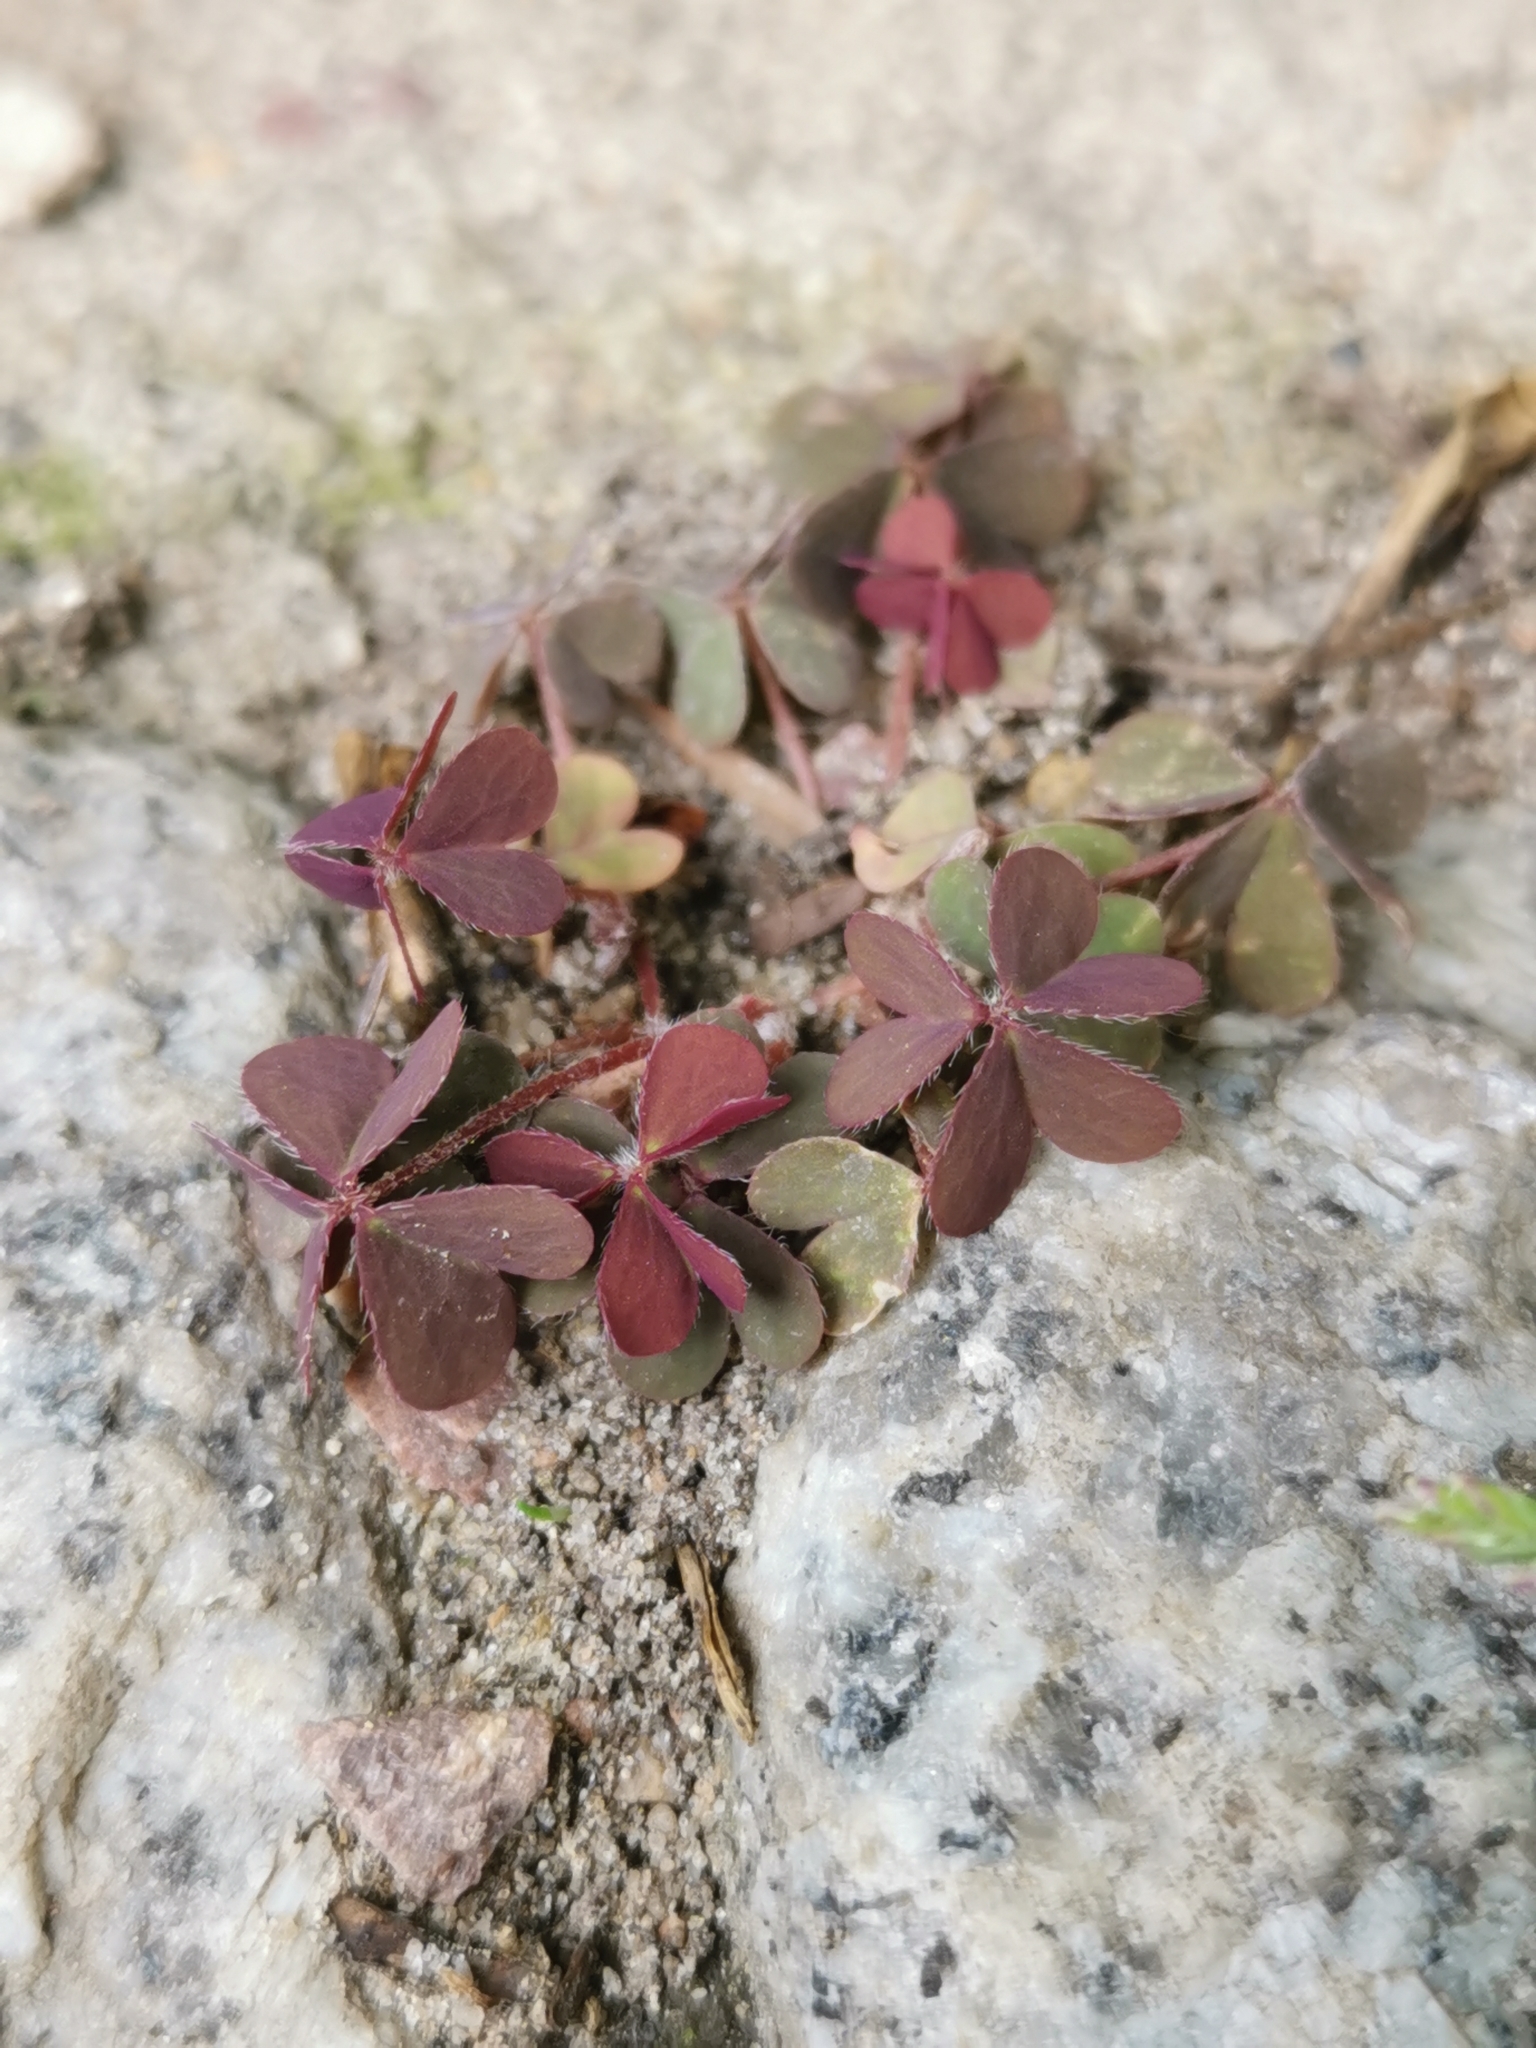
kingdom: Plantae
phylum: Tracheophyta
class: Magnoliopsida
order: Oxalidales
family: Oxalidaceae
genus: Oxalis
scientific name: Oxalis corniculata
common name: Procumbent yellow-sorrel
